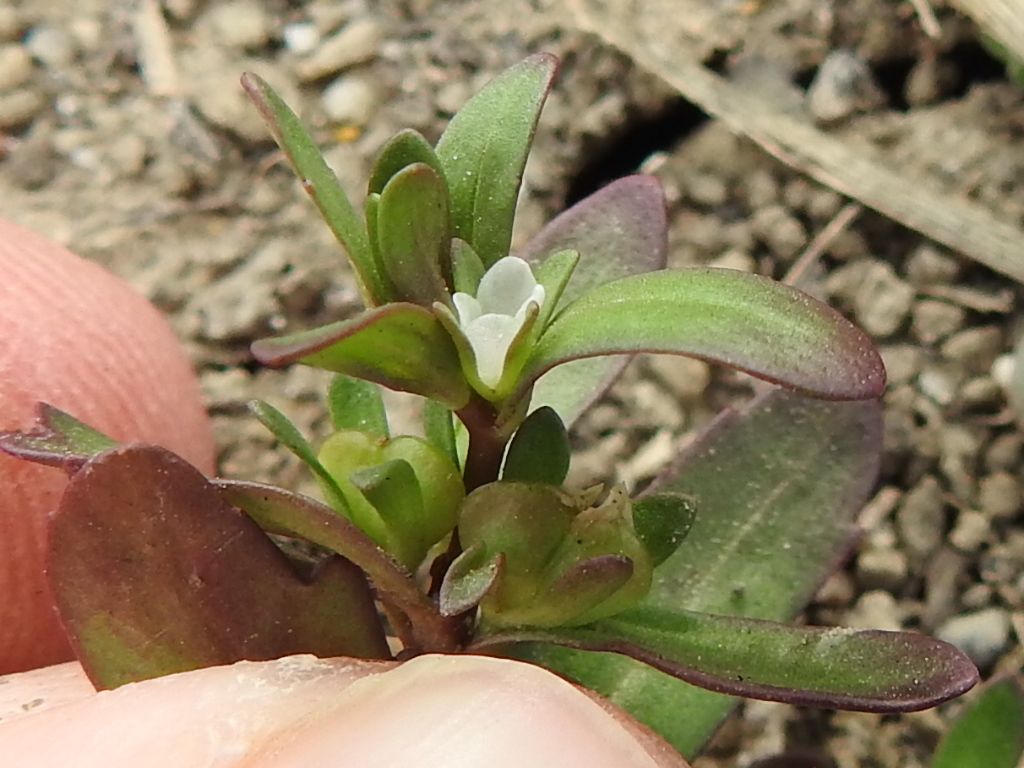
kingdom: Plantae
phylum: Tracheophyta
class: Magnoliopsida
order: Lamiales
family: Plantaginaceae
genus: Veronica
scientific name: Veronica peregrina
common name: Neckweed
